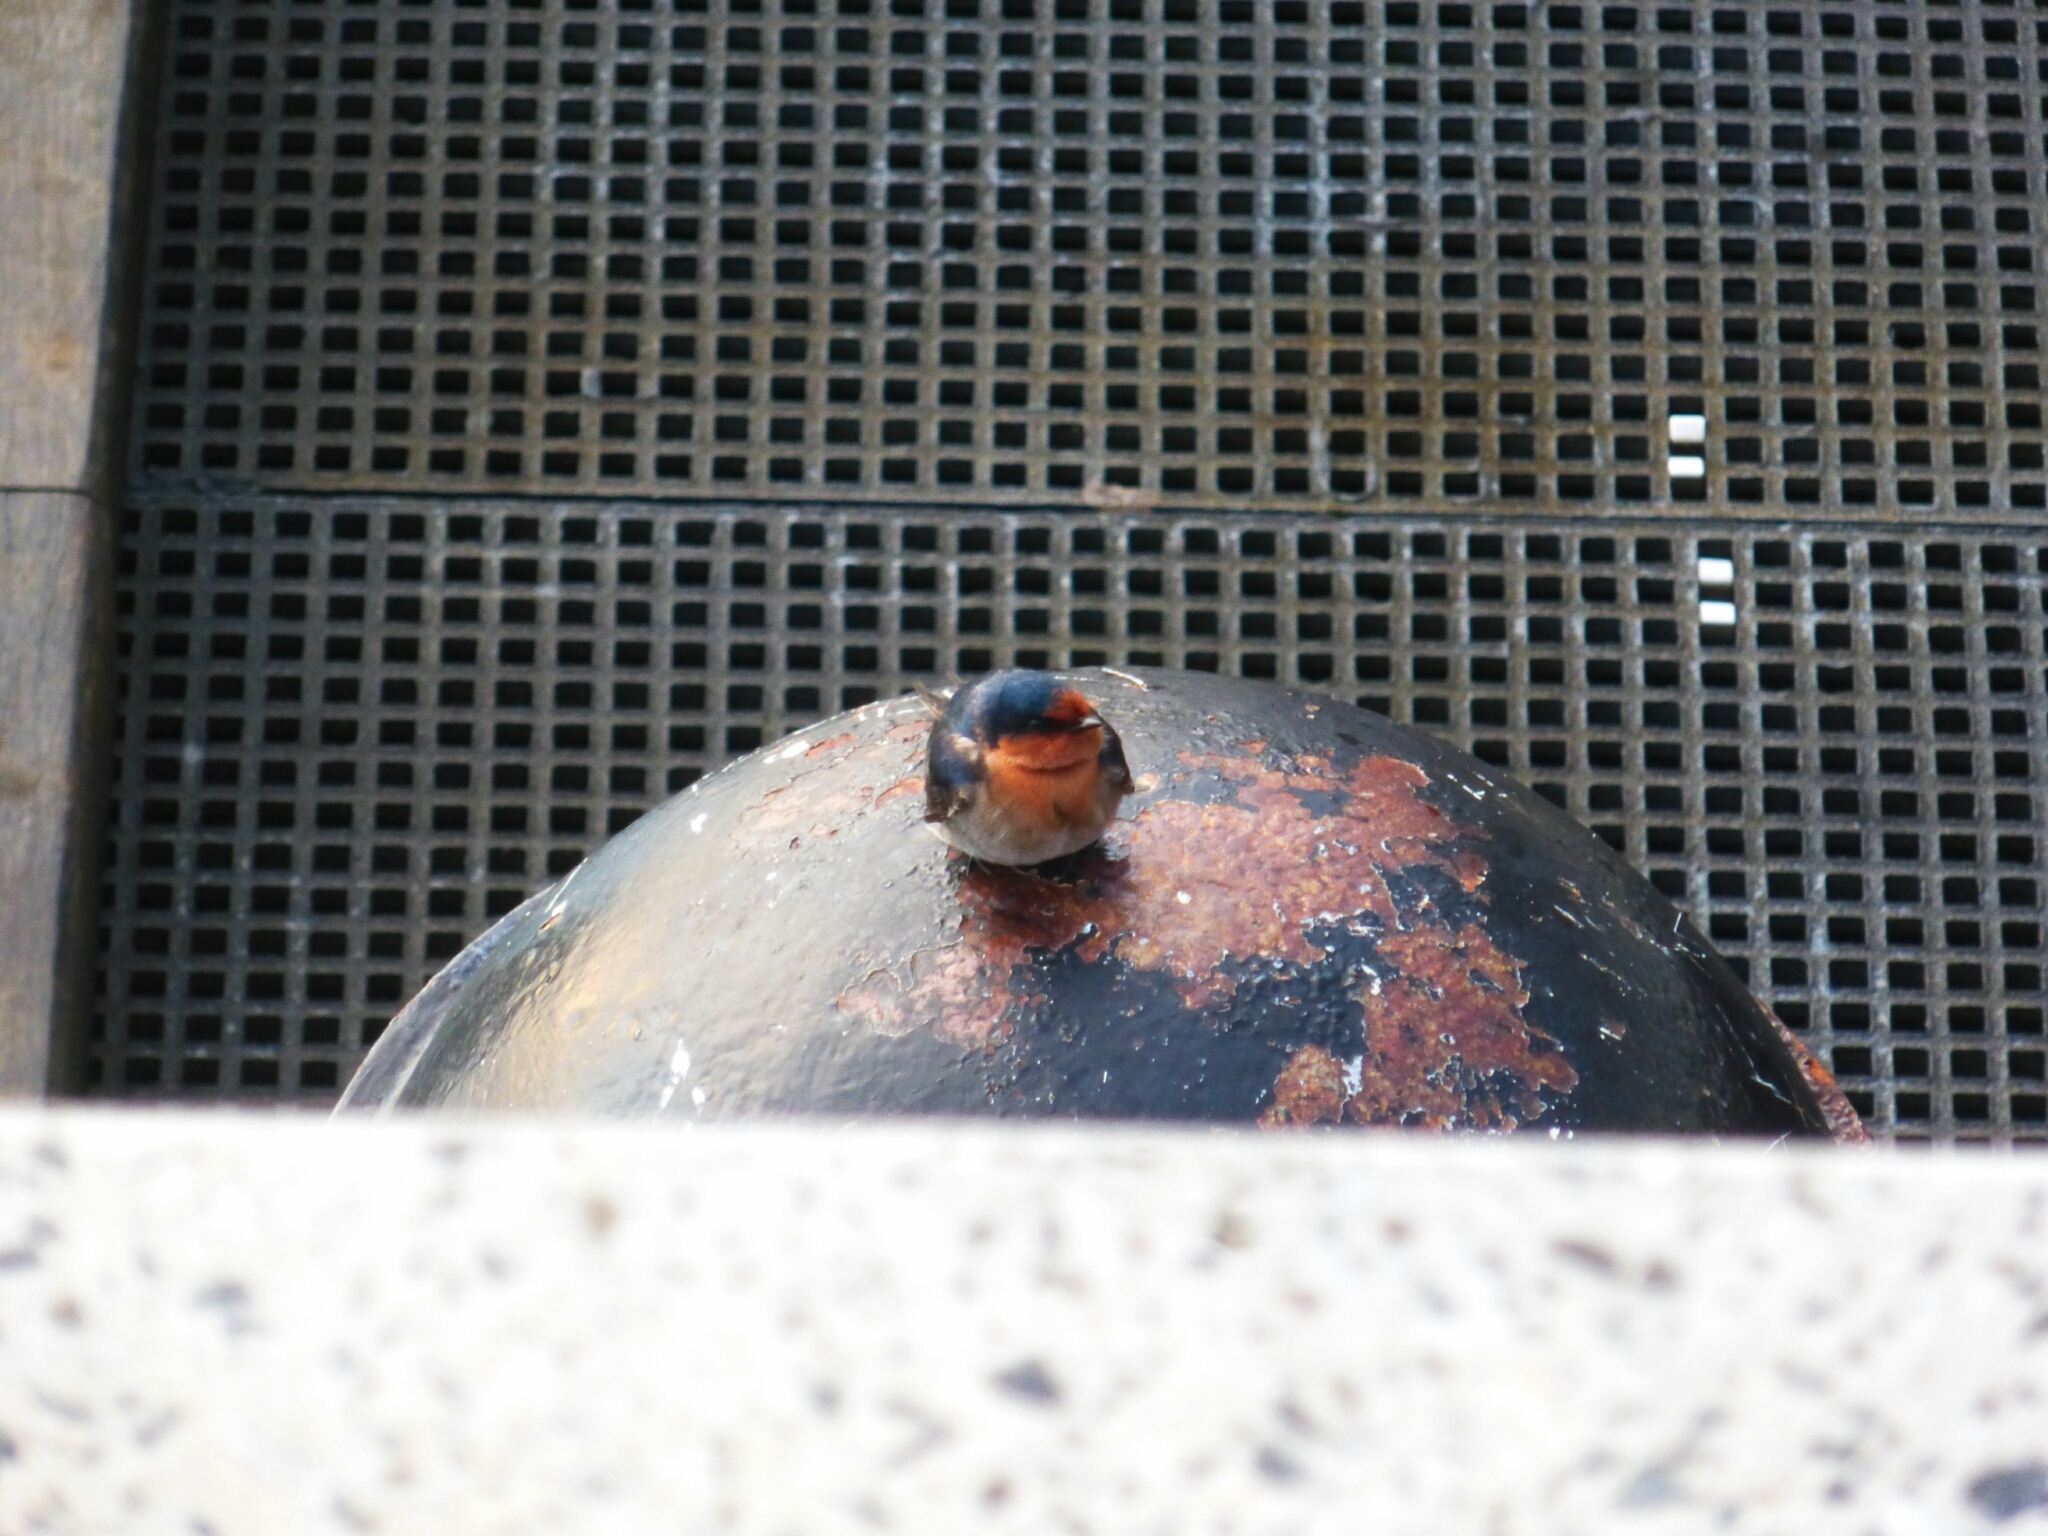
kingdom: Animalia
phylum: Chordata
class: Aves
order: Passeriformes
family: Hirundinidae
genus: Hirundo
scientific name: Hirundo neoxena
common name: Welcome swallow
